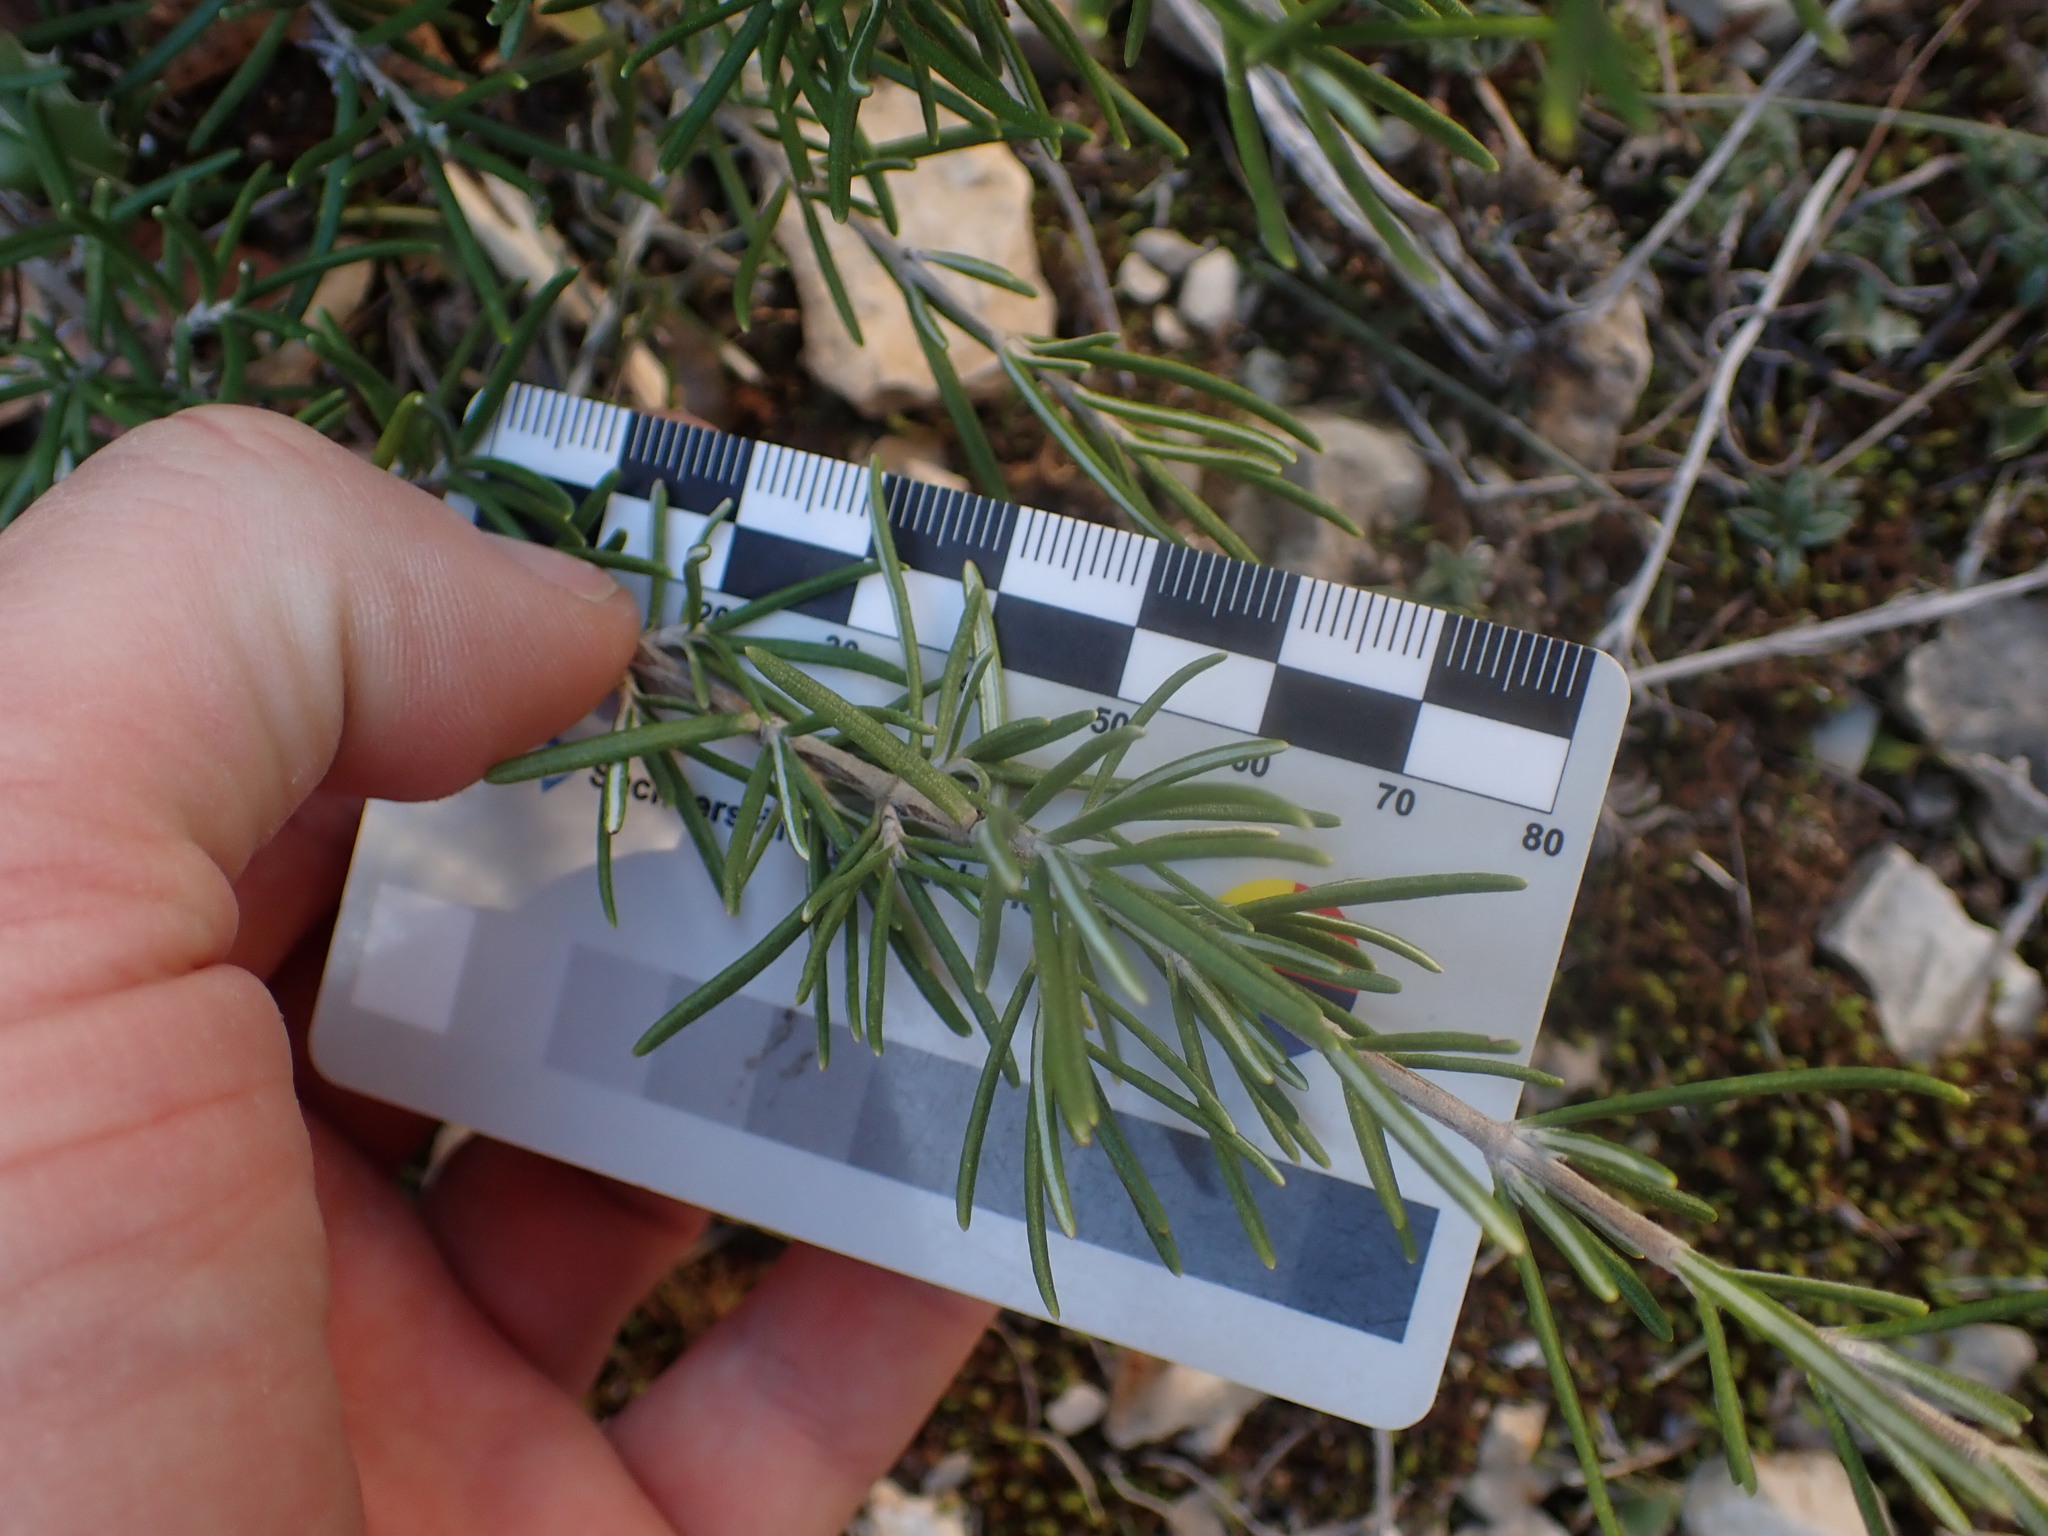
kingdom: Plantae
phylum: Tracheophyta
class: Magnoliopsida
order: Lamiales
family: Lamiaceae
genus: Salvia
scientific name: Salvia rosmarinus
